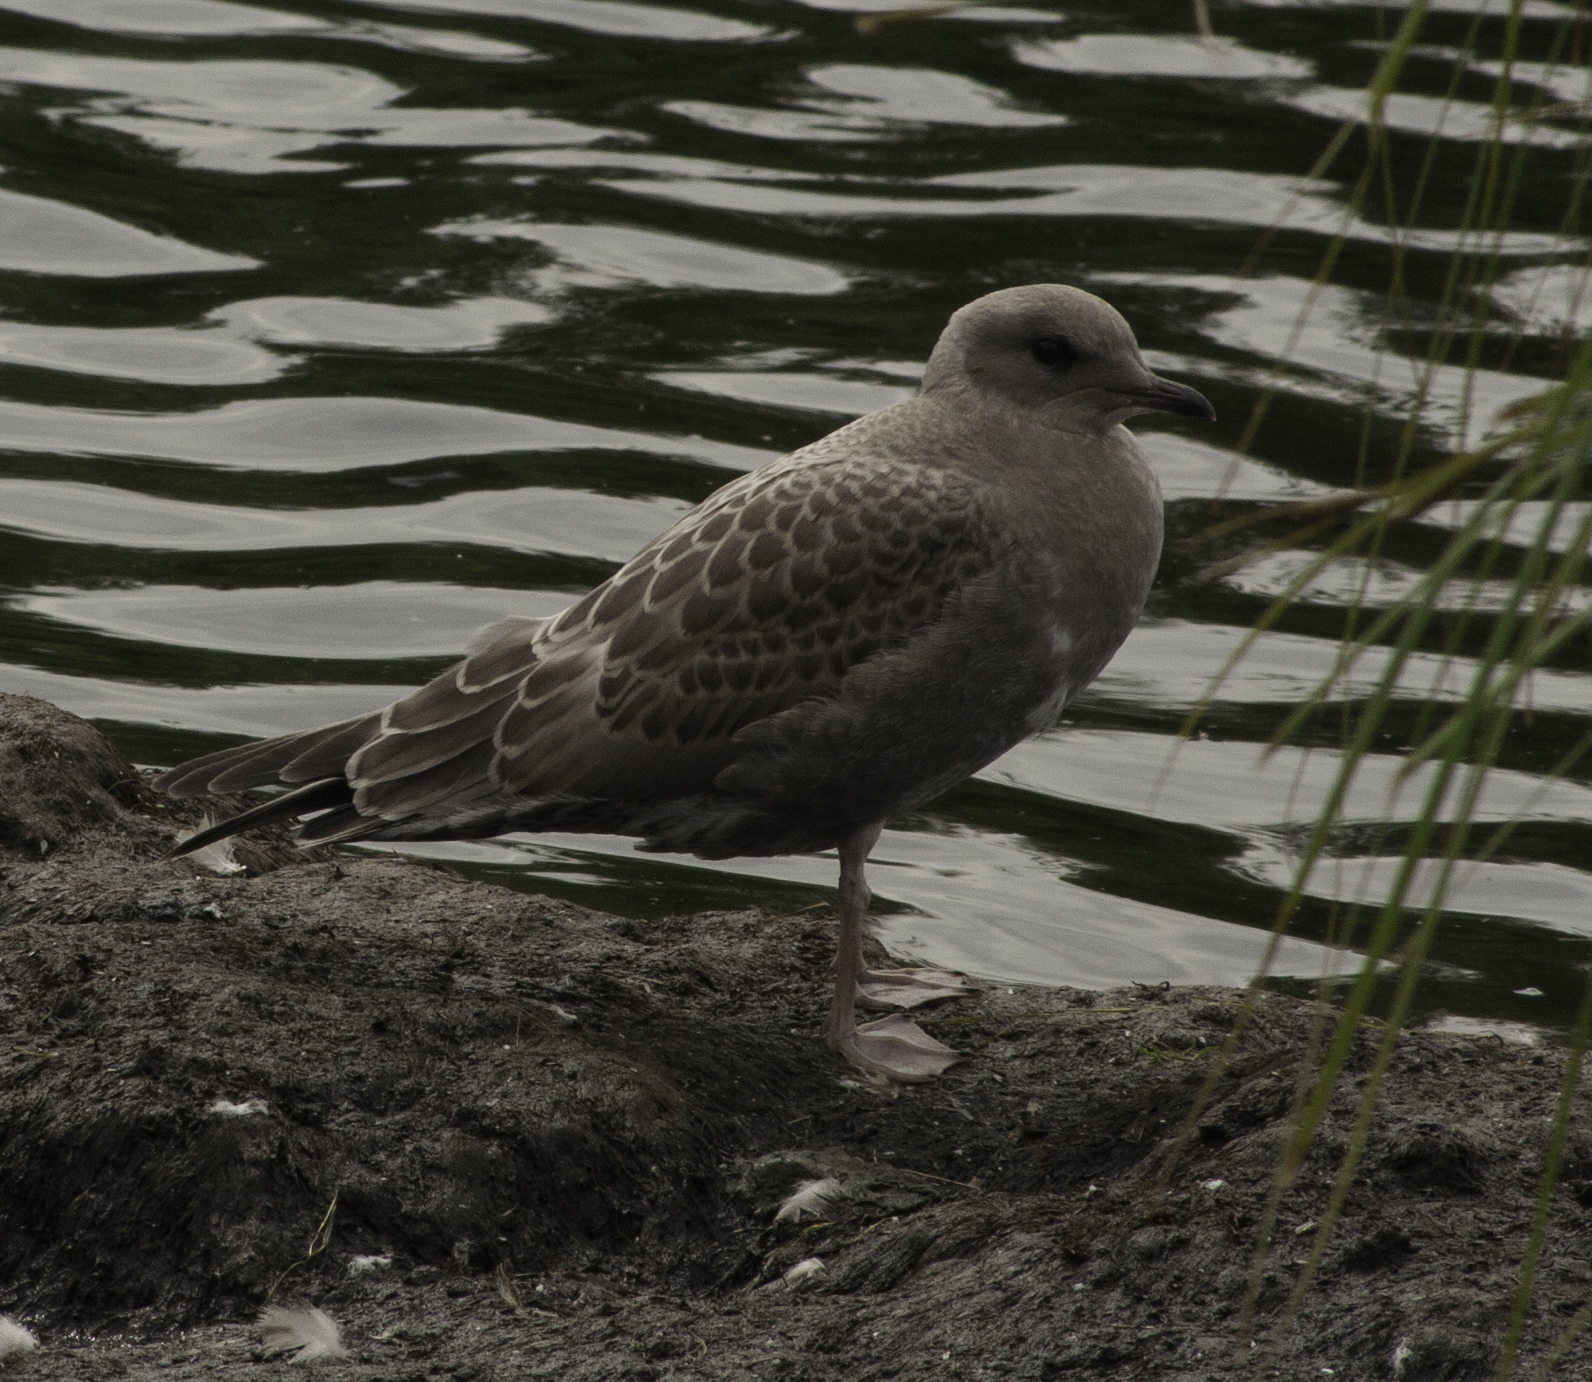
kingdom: Animalia
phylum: Chordata
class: Aves
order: Charadriiformes
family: Laridae
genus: Larus
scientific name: Larus brachyrhynchus
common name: Short-billed gull
